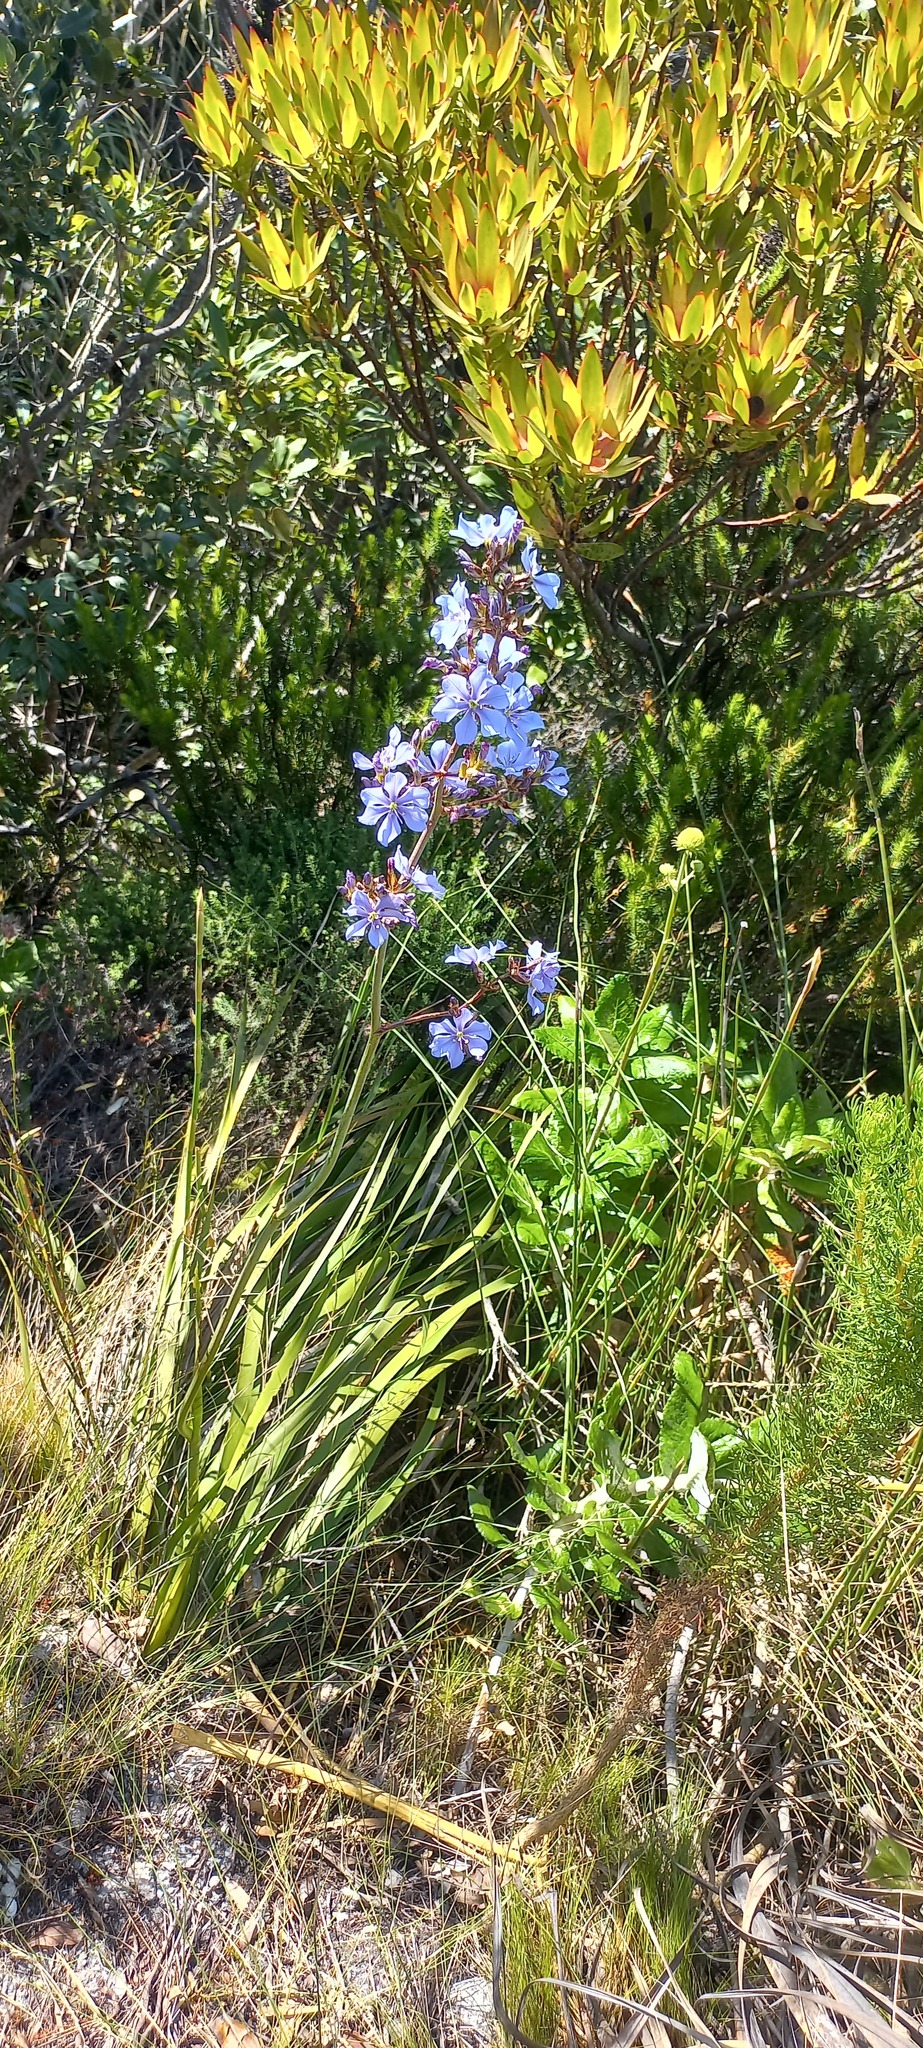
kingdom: Plantae
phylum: Tracheophyta
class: Liliopsida
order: Asparagales
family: Iridaceae
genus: Aristea
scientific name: Aristea bakeri
